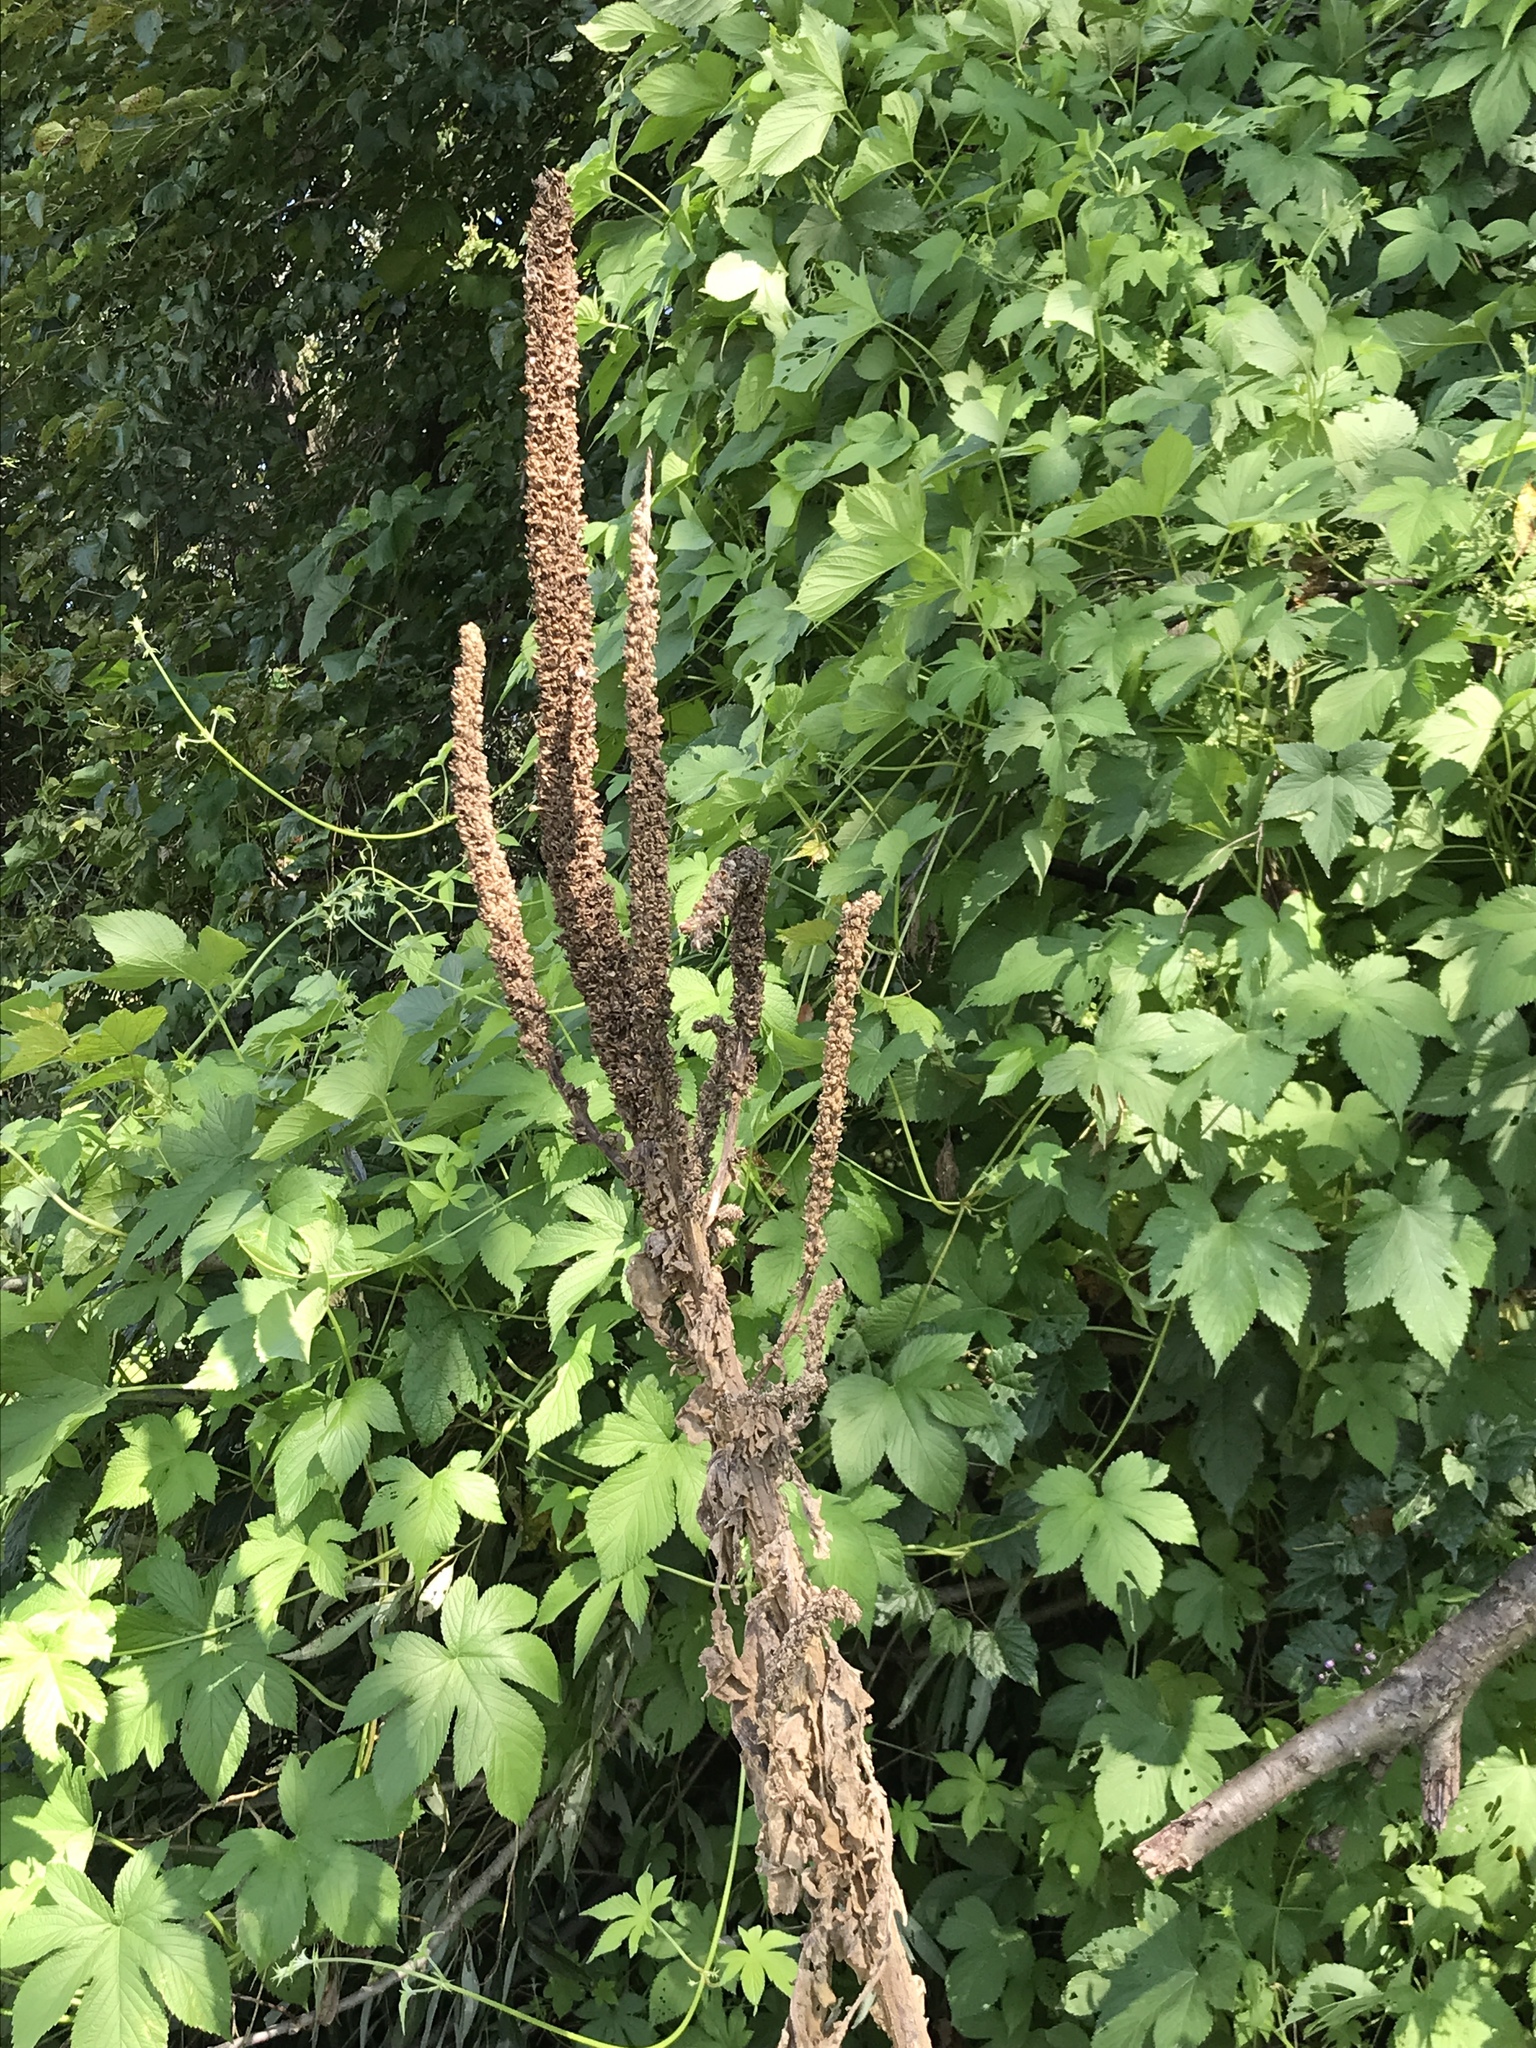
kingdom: Plantae
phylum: Tracheophyta
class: Magnoliopsida
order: Lamiales
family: Scrophulariaceae
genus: Verbascum
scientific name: Verbascum thapsus
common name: Common mullein
